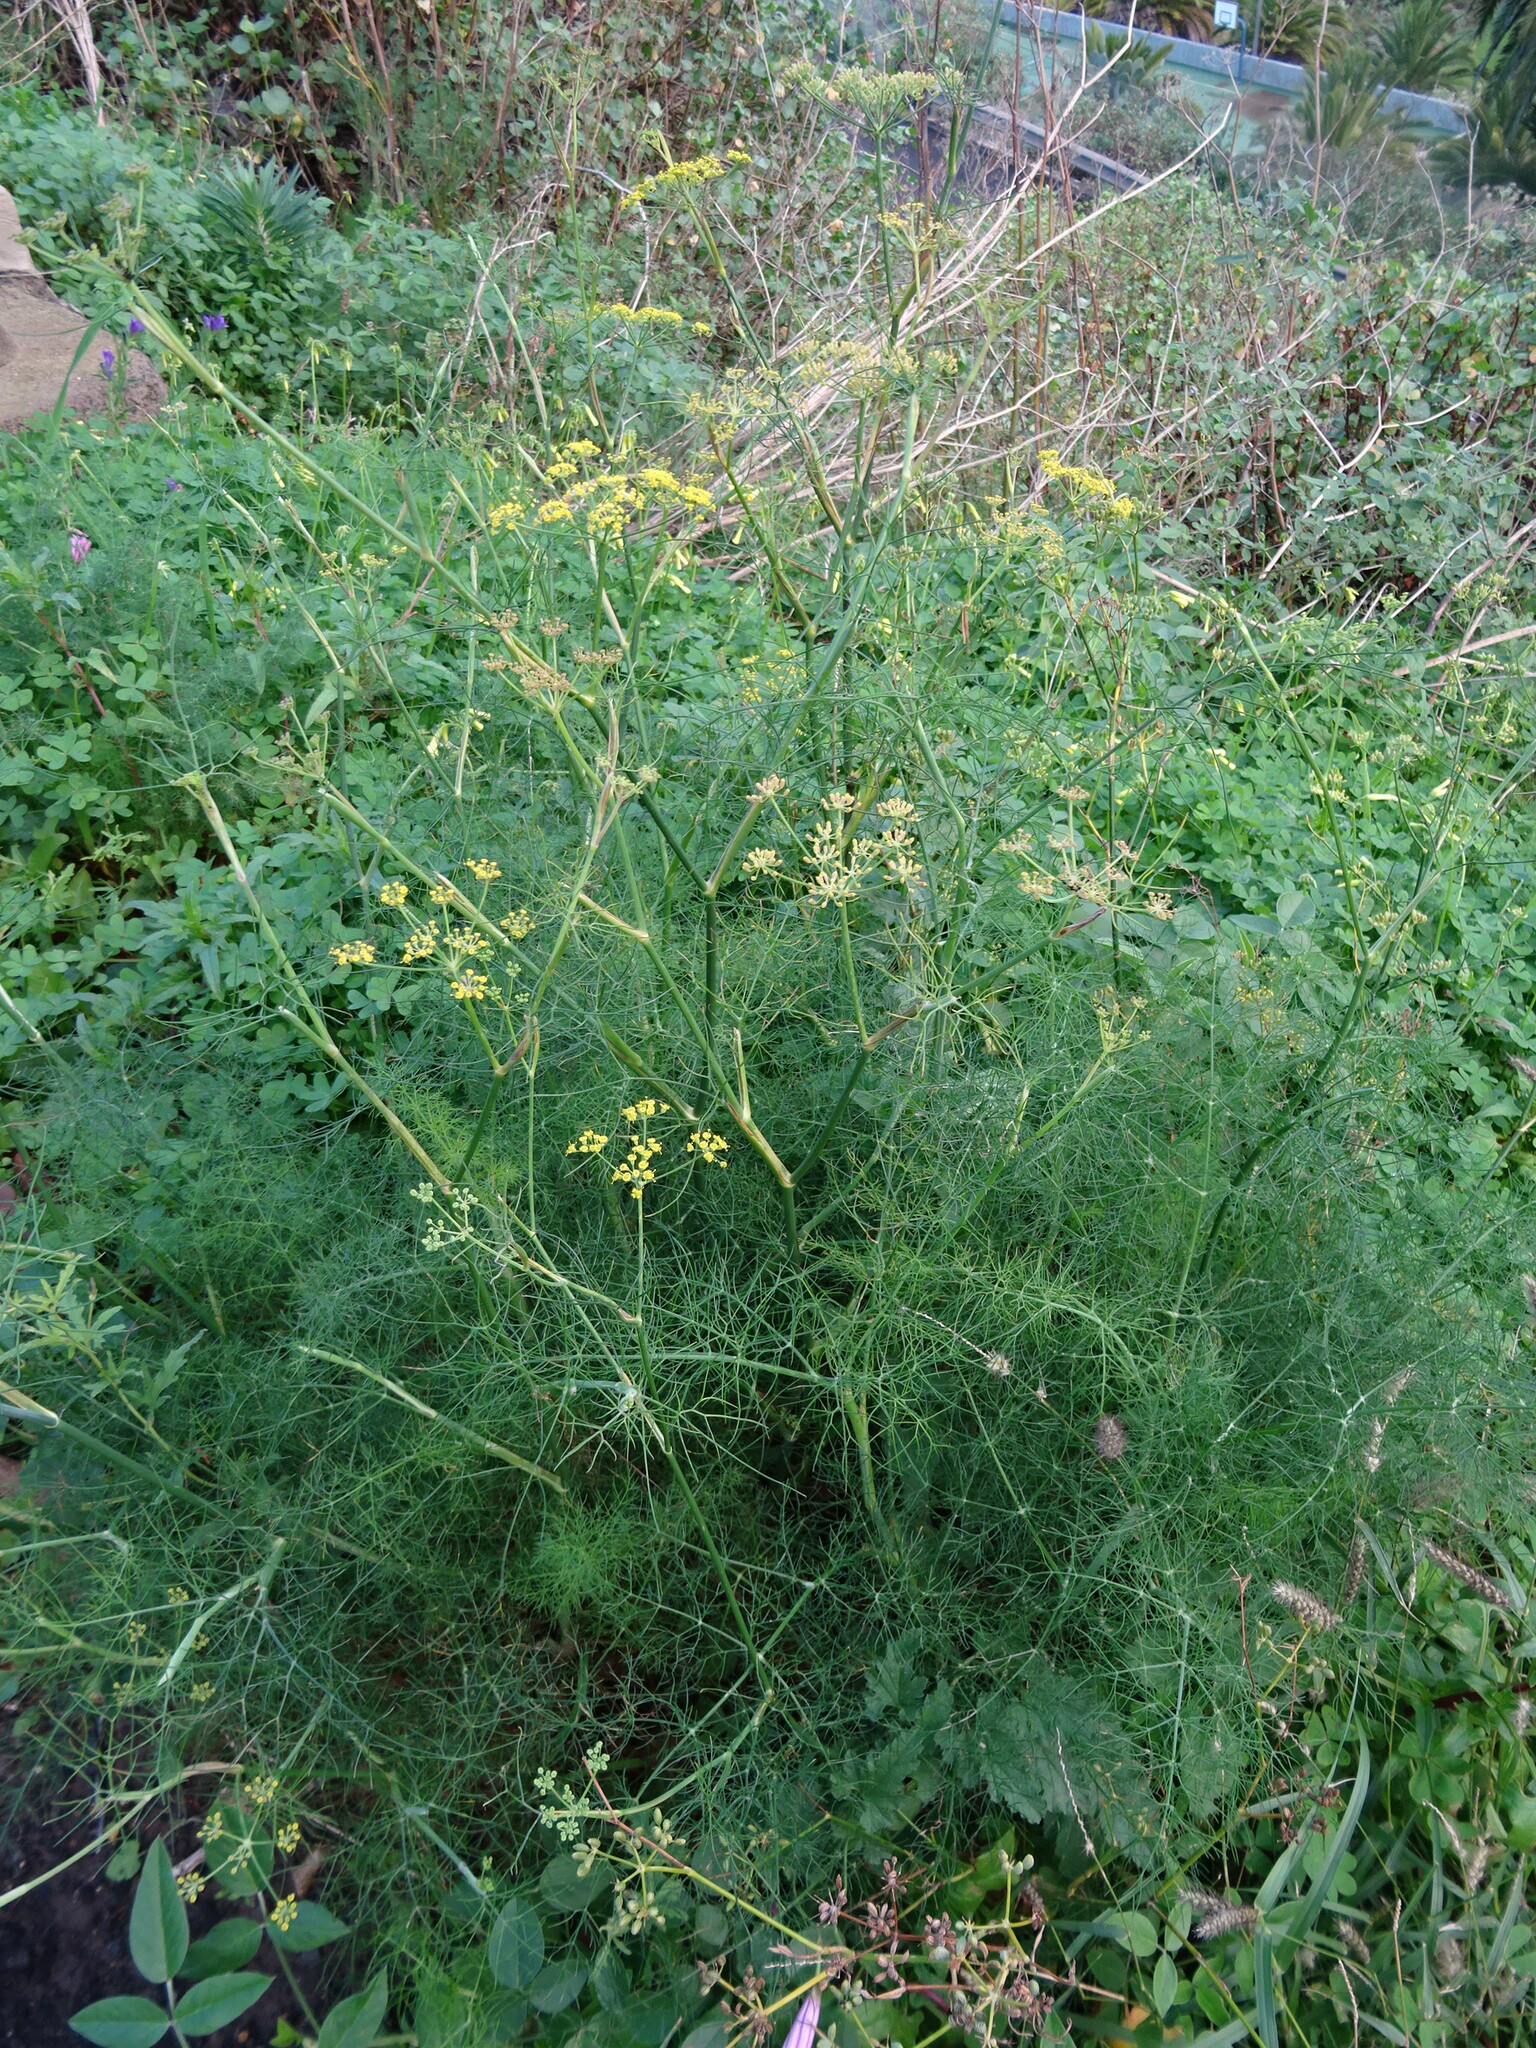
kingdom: Plantae
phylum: Tracheophyta
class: Magnoliopsida
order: Apiales
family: Apiaceae
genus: Foeniculum
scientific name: Foeniculum vulgare
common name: Fennel
